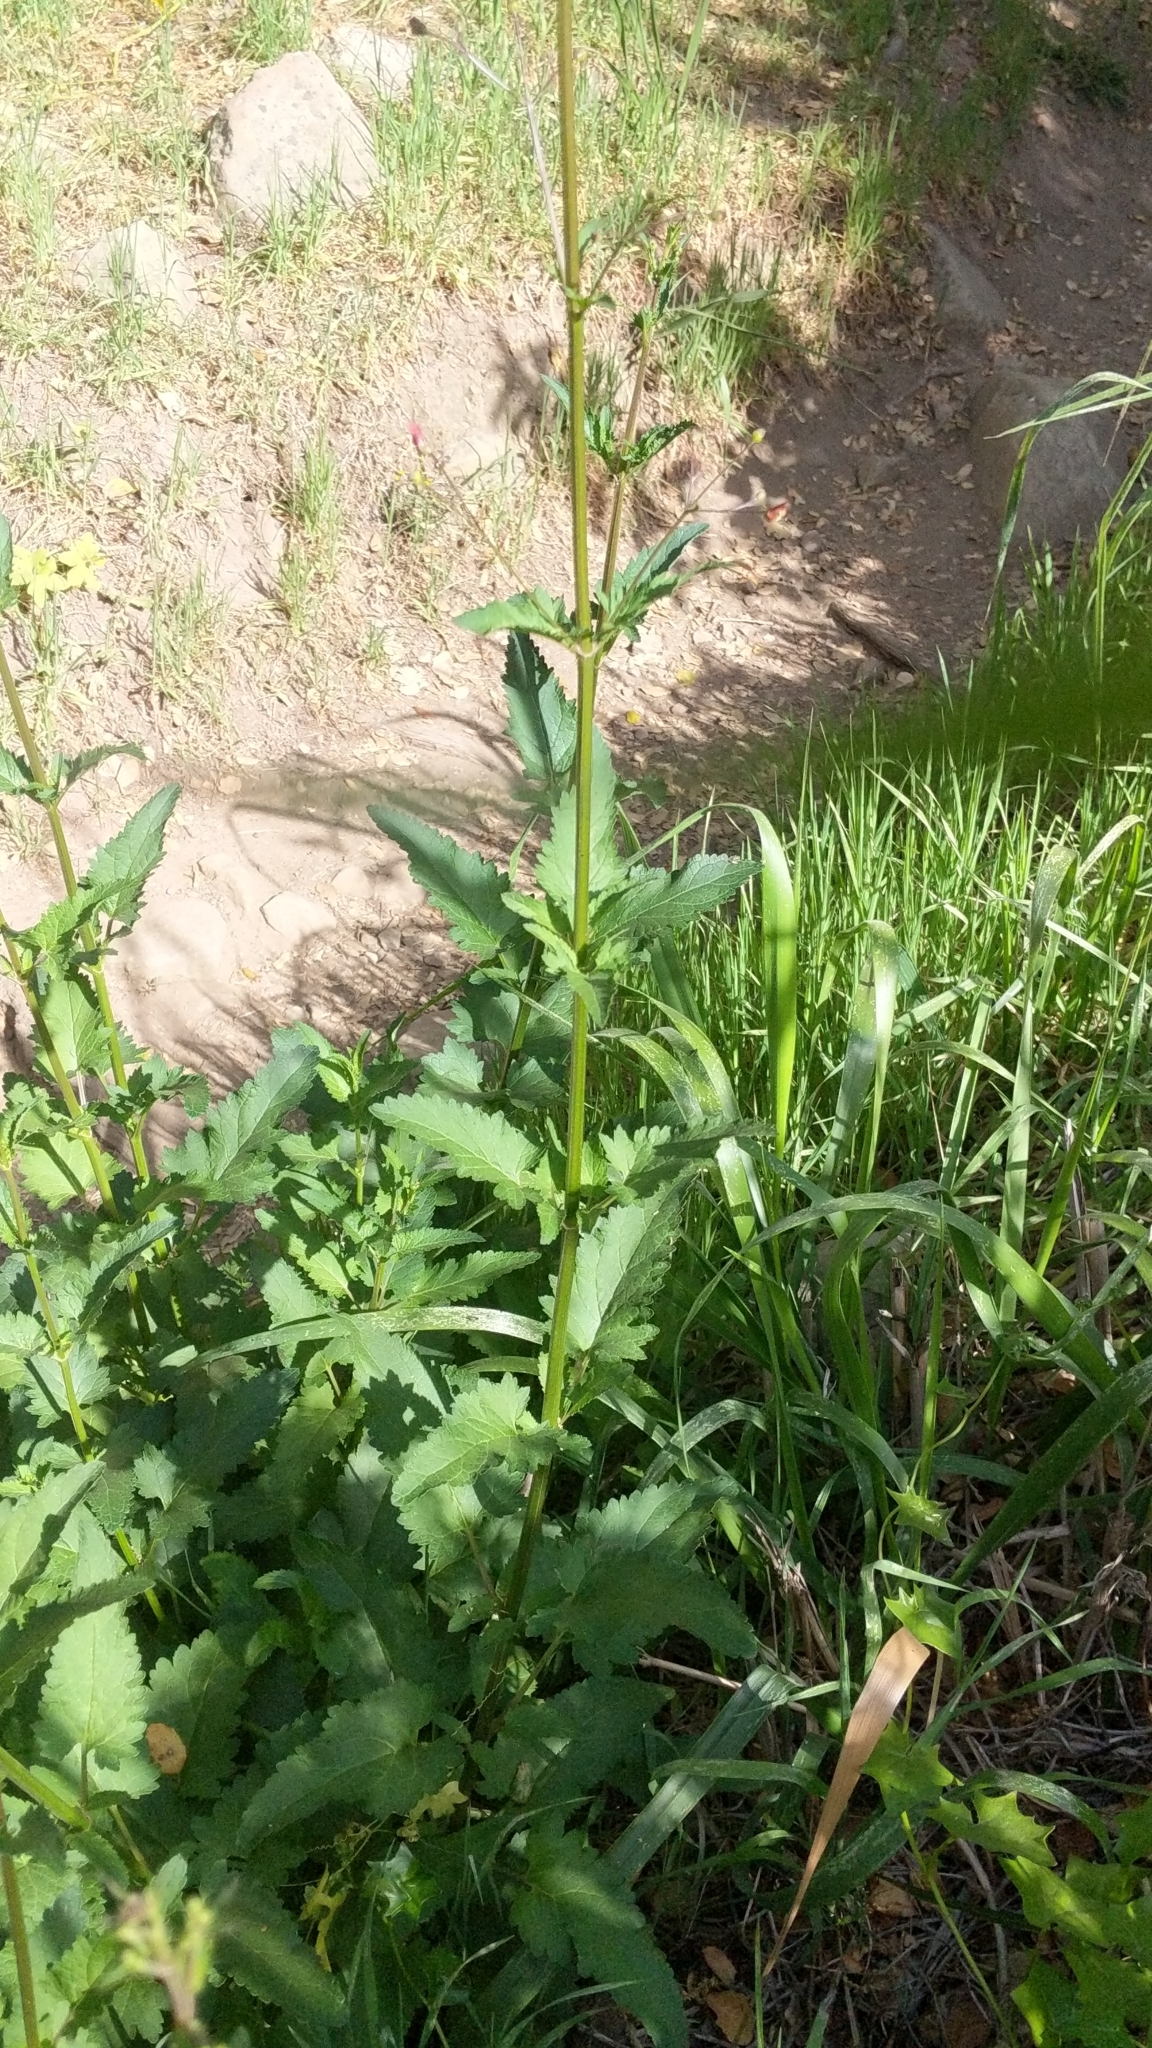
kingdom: Plantae
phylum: Tracheophyta
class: Magnoliopsida
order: Lamiales
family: Scrophulariaceae
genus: Scrophularia
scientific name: Scrophularia californica
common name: California figwort
